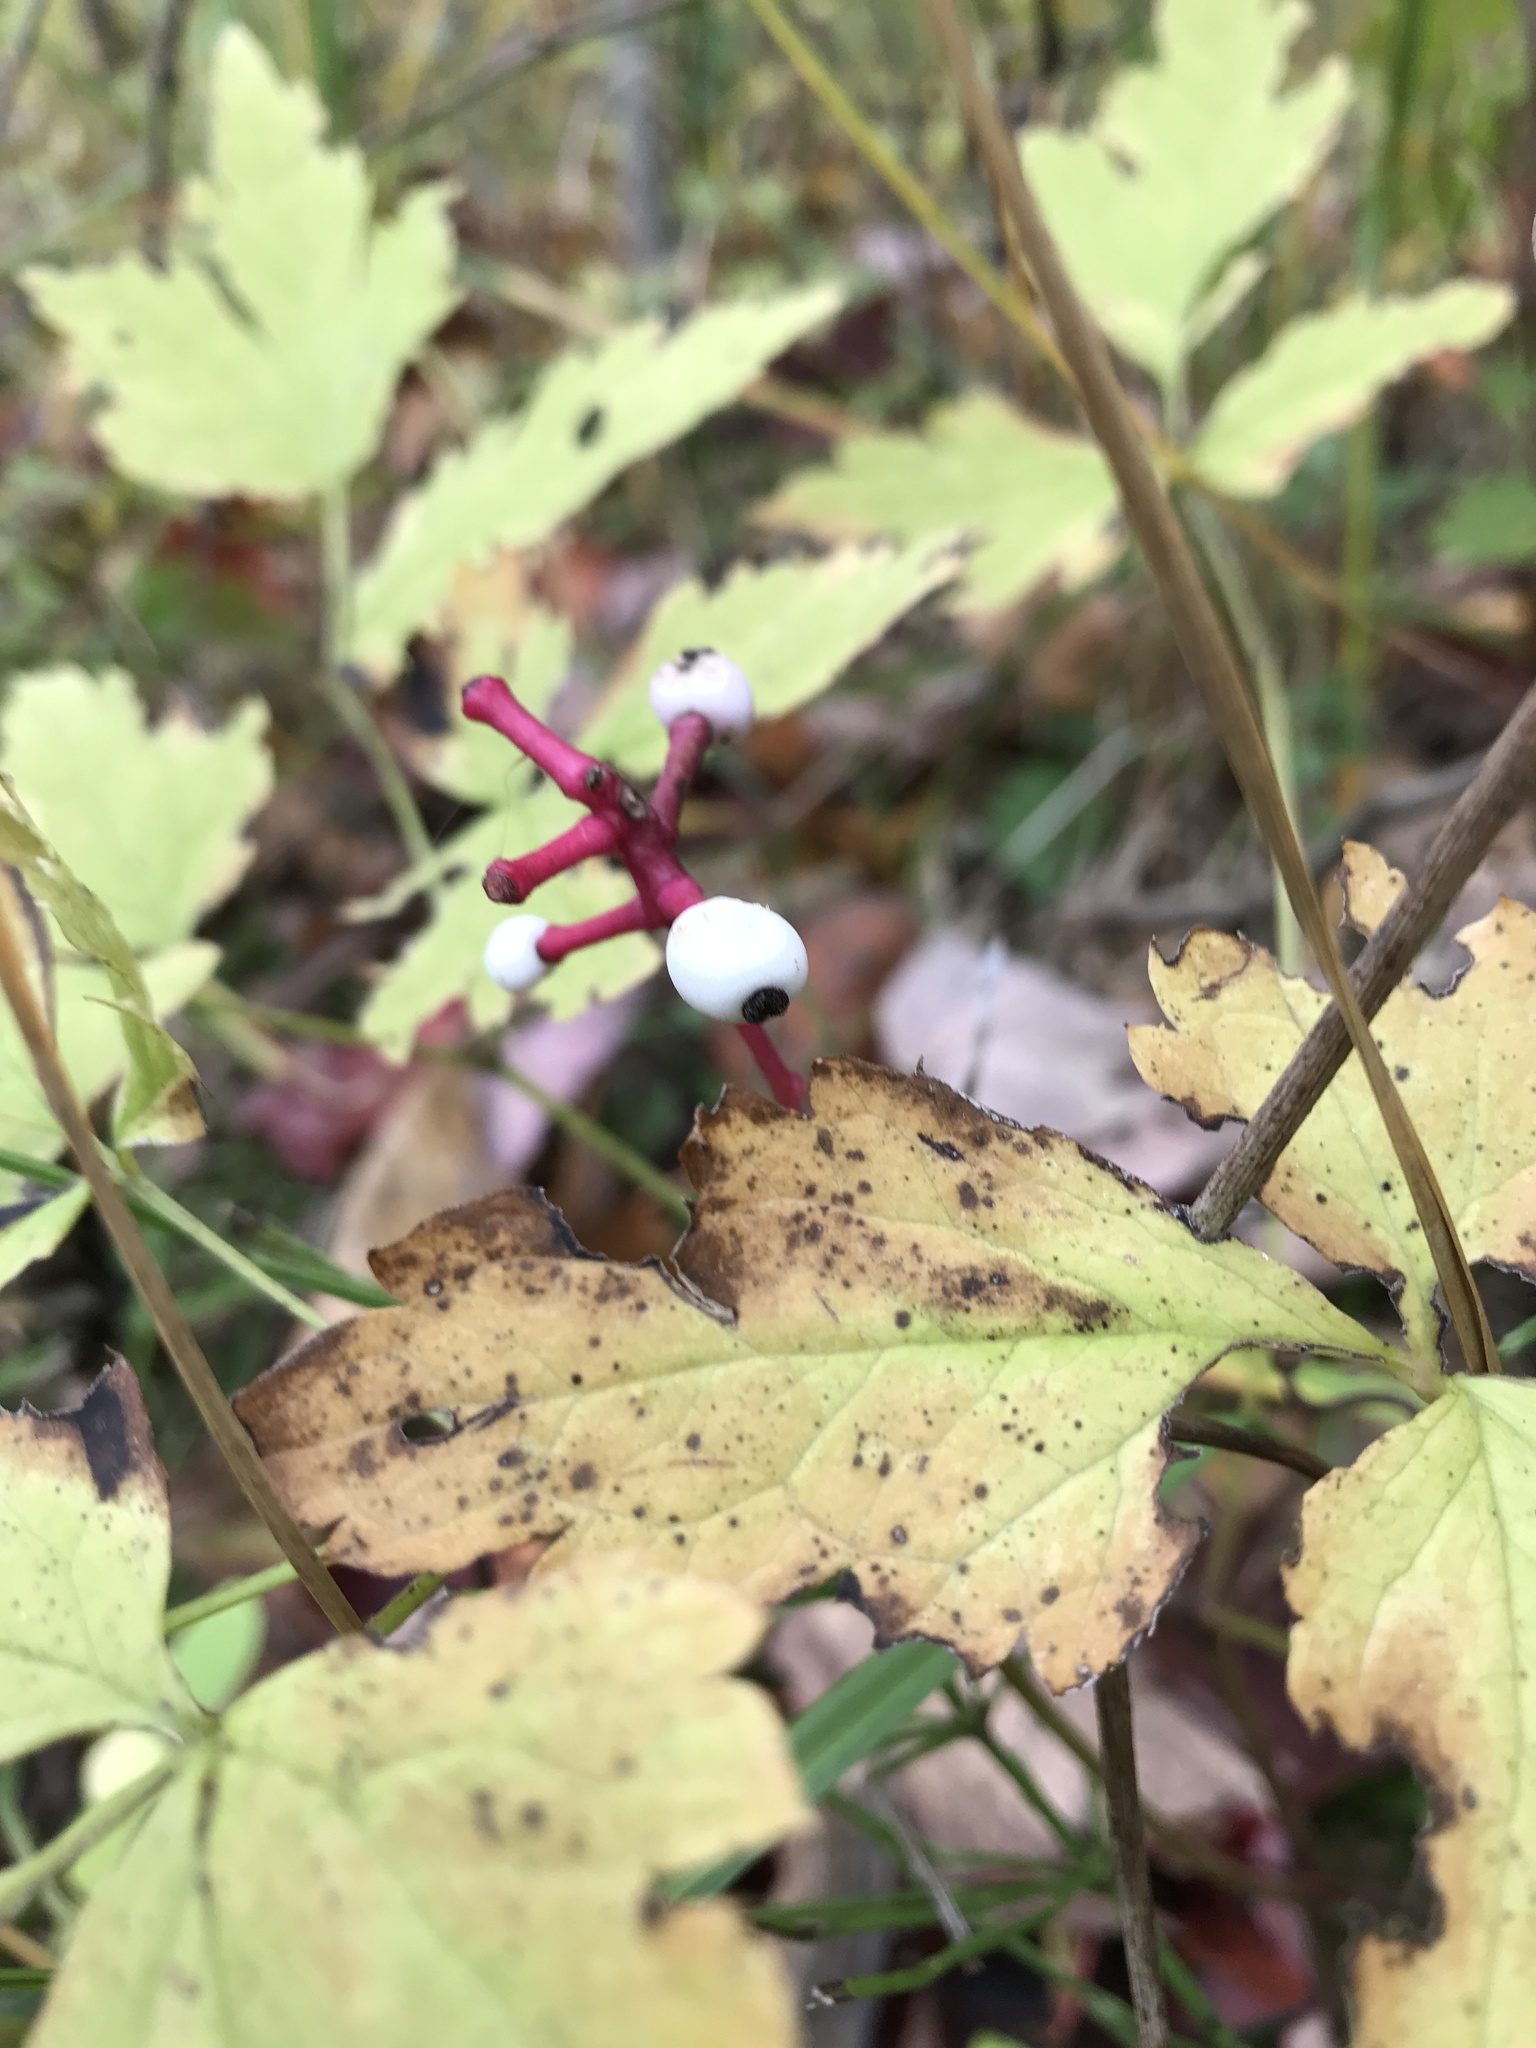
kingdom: Plantae
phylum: Tracheophyta
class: Magnoliopsida
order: Ranunculales
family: Ranunculaceae
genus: Actaea
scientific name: Actaea pachypoda
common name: Doll's-eyes
